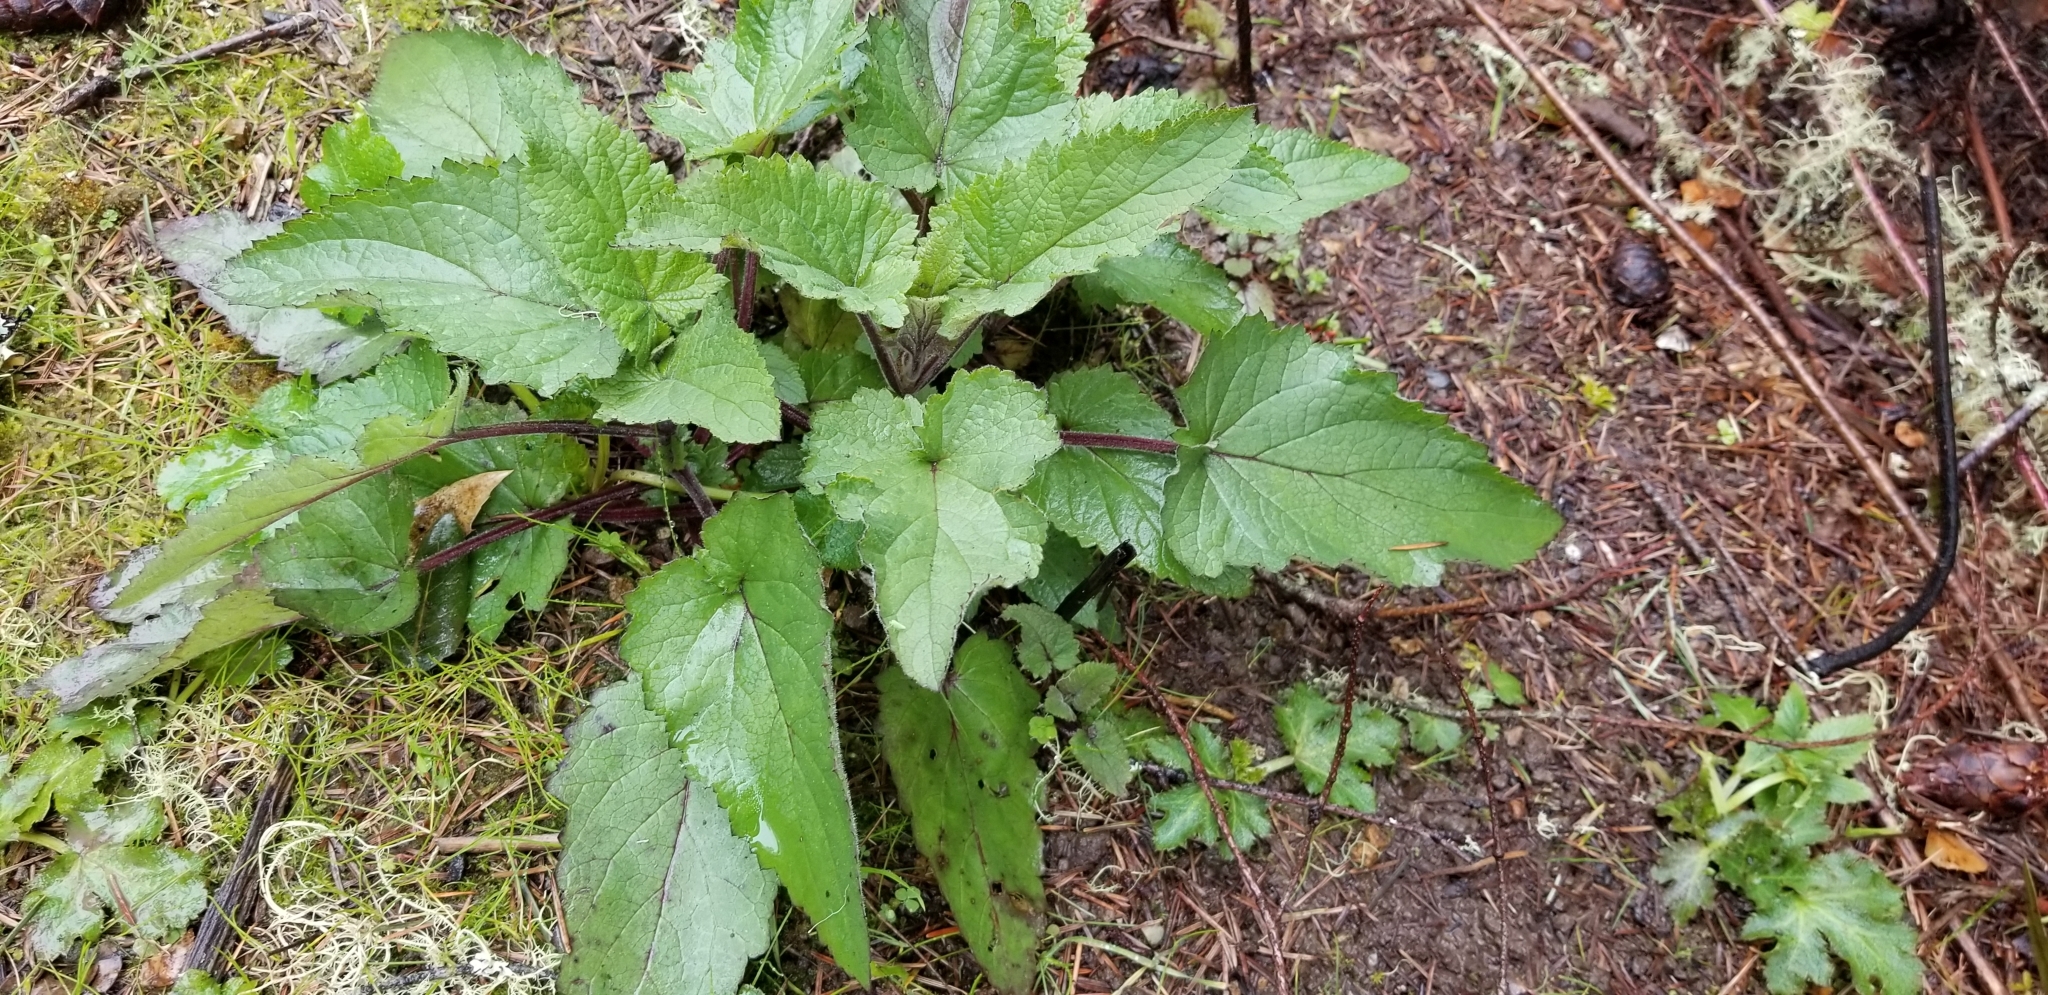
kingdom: Plantae
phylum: Tracheophyta
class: Magnoliopsida
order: Lamiales
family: Scrophulariaceae
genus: Scrophularia
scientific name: Scrophularia californica
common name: California figwort
